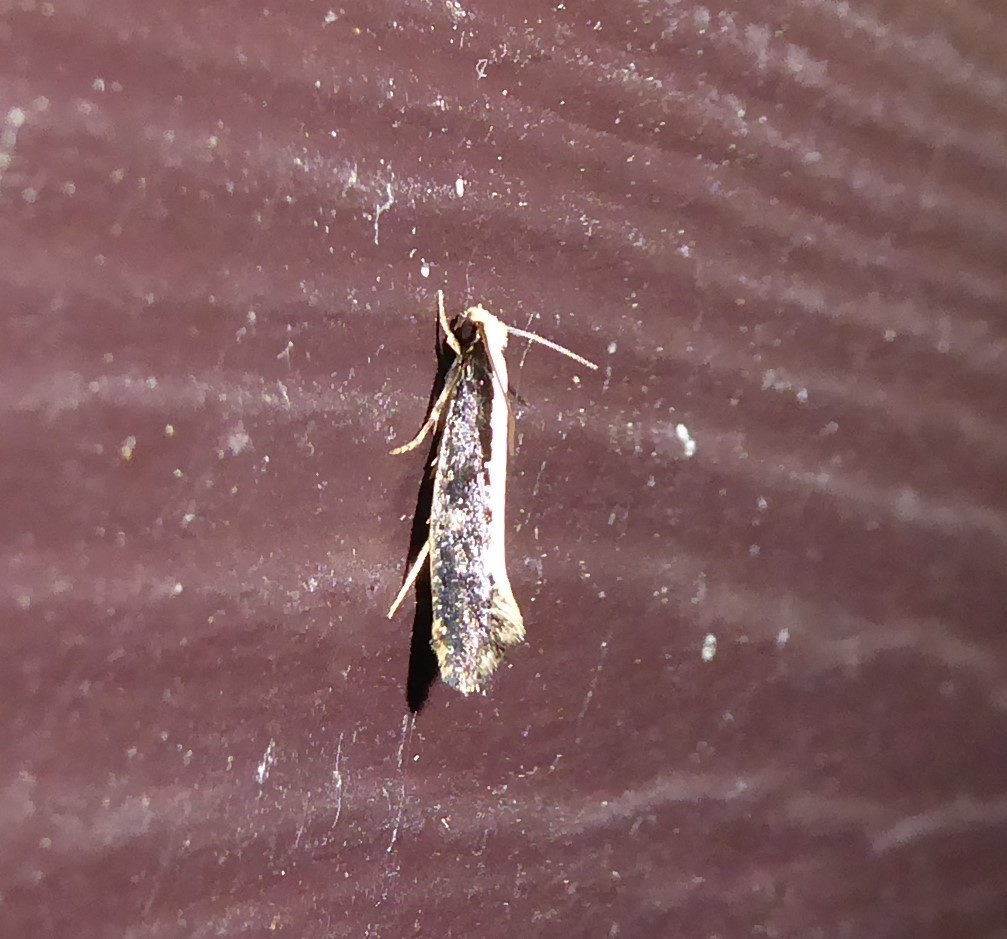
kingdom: Animalia
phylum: Arthropoda
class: Insecta
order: Lepidoptera
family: Tineidae
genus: Monopis
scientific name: Monopis ethelella
